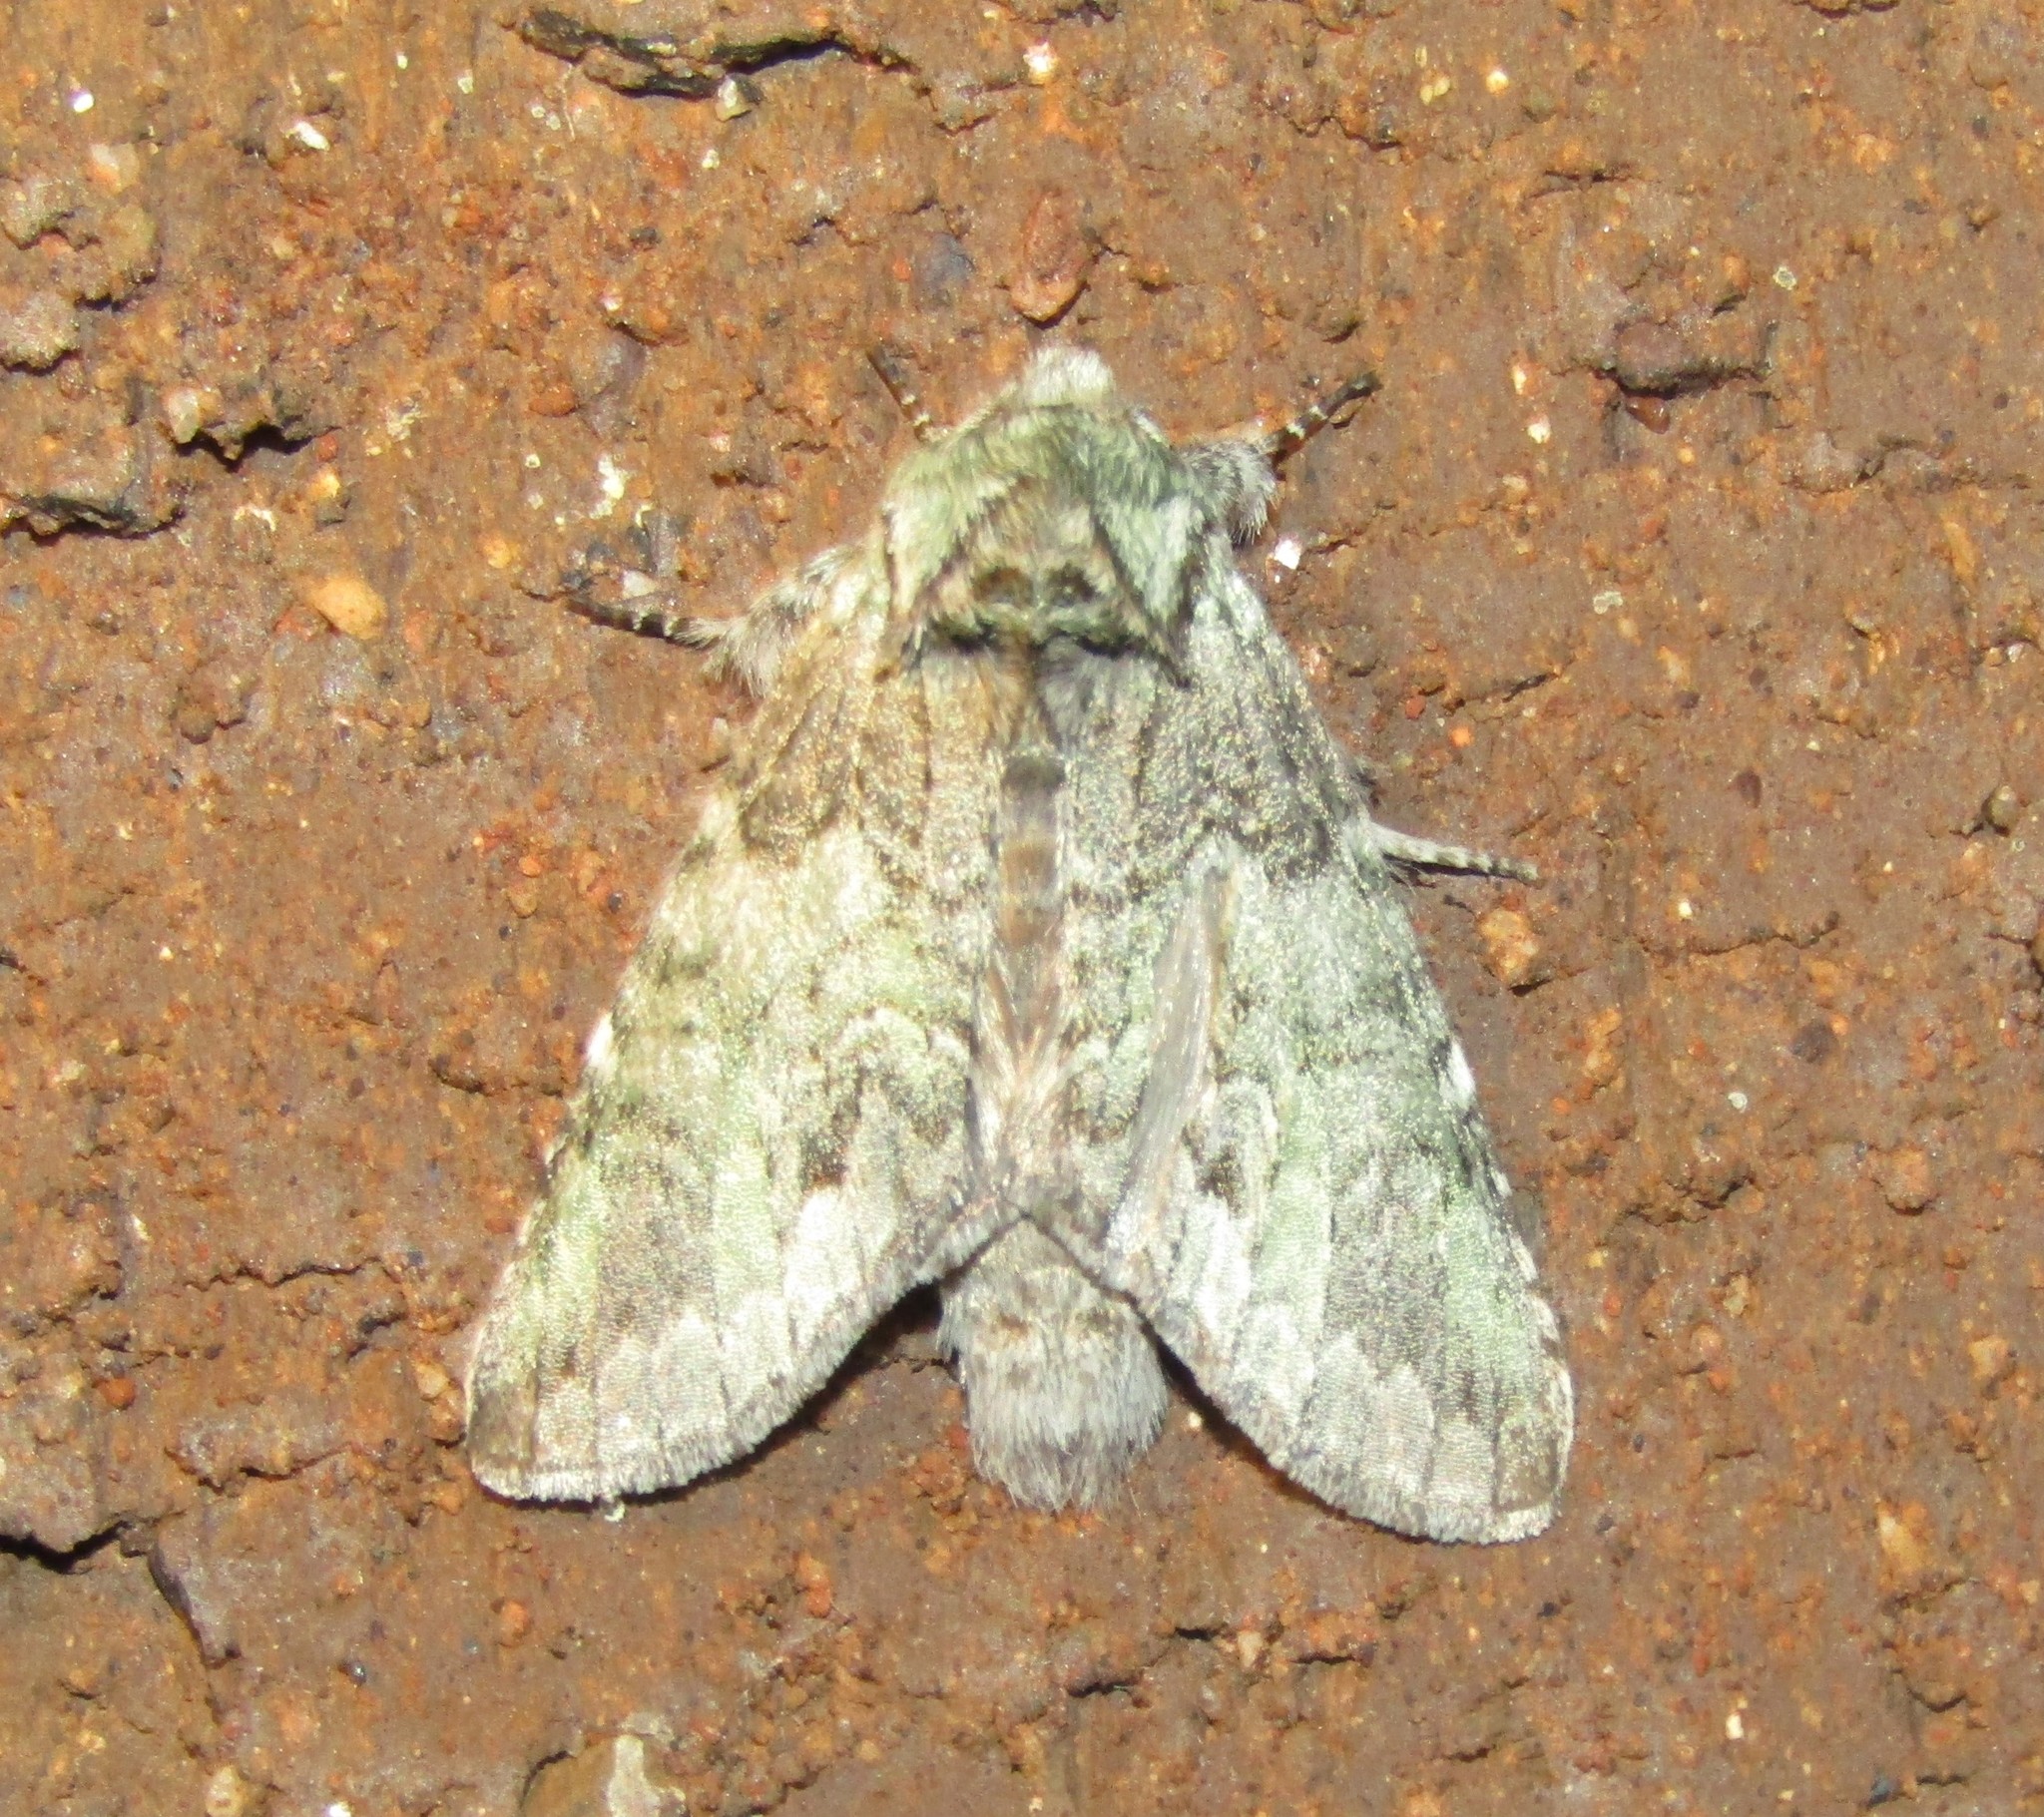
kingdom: Animalia
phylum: Arthropoda
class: Insecta
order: Lepidoptera
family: Notodontidae
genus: Macrurocampa
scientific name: Macrurocampa marthesia
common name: Mottled prominent
